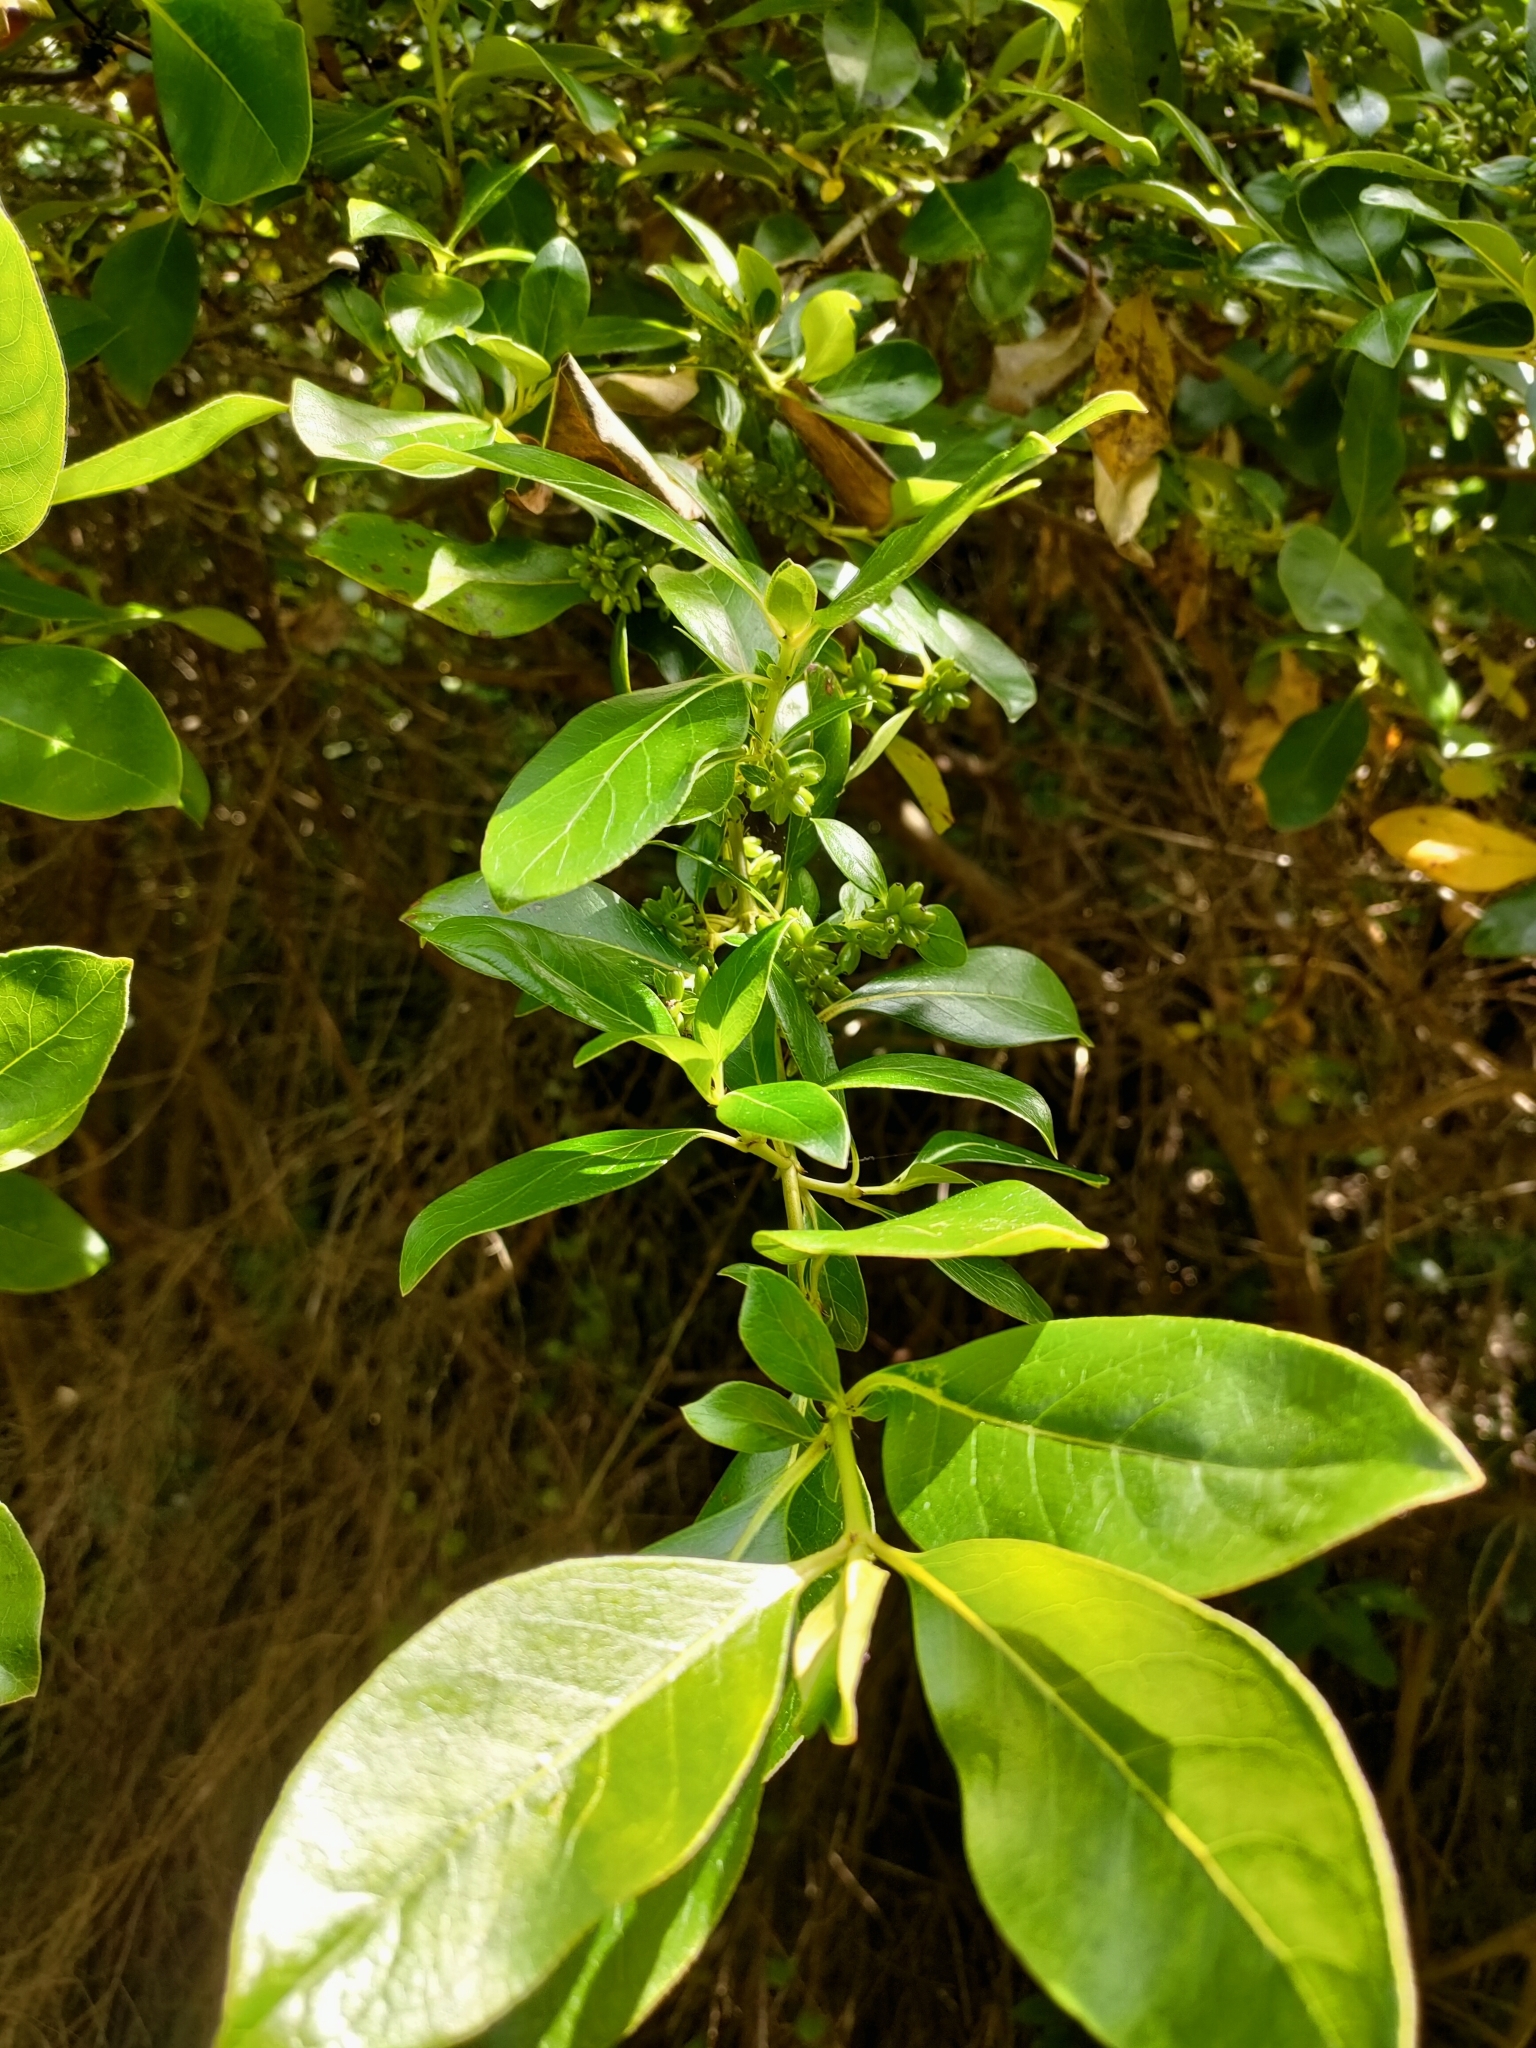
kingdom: Plantae
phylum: Tracheophyta
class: Magnoliopsida
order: Gentianales
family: Rubiaceae
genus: Coprosma
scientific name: Coprosma robusta
